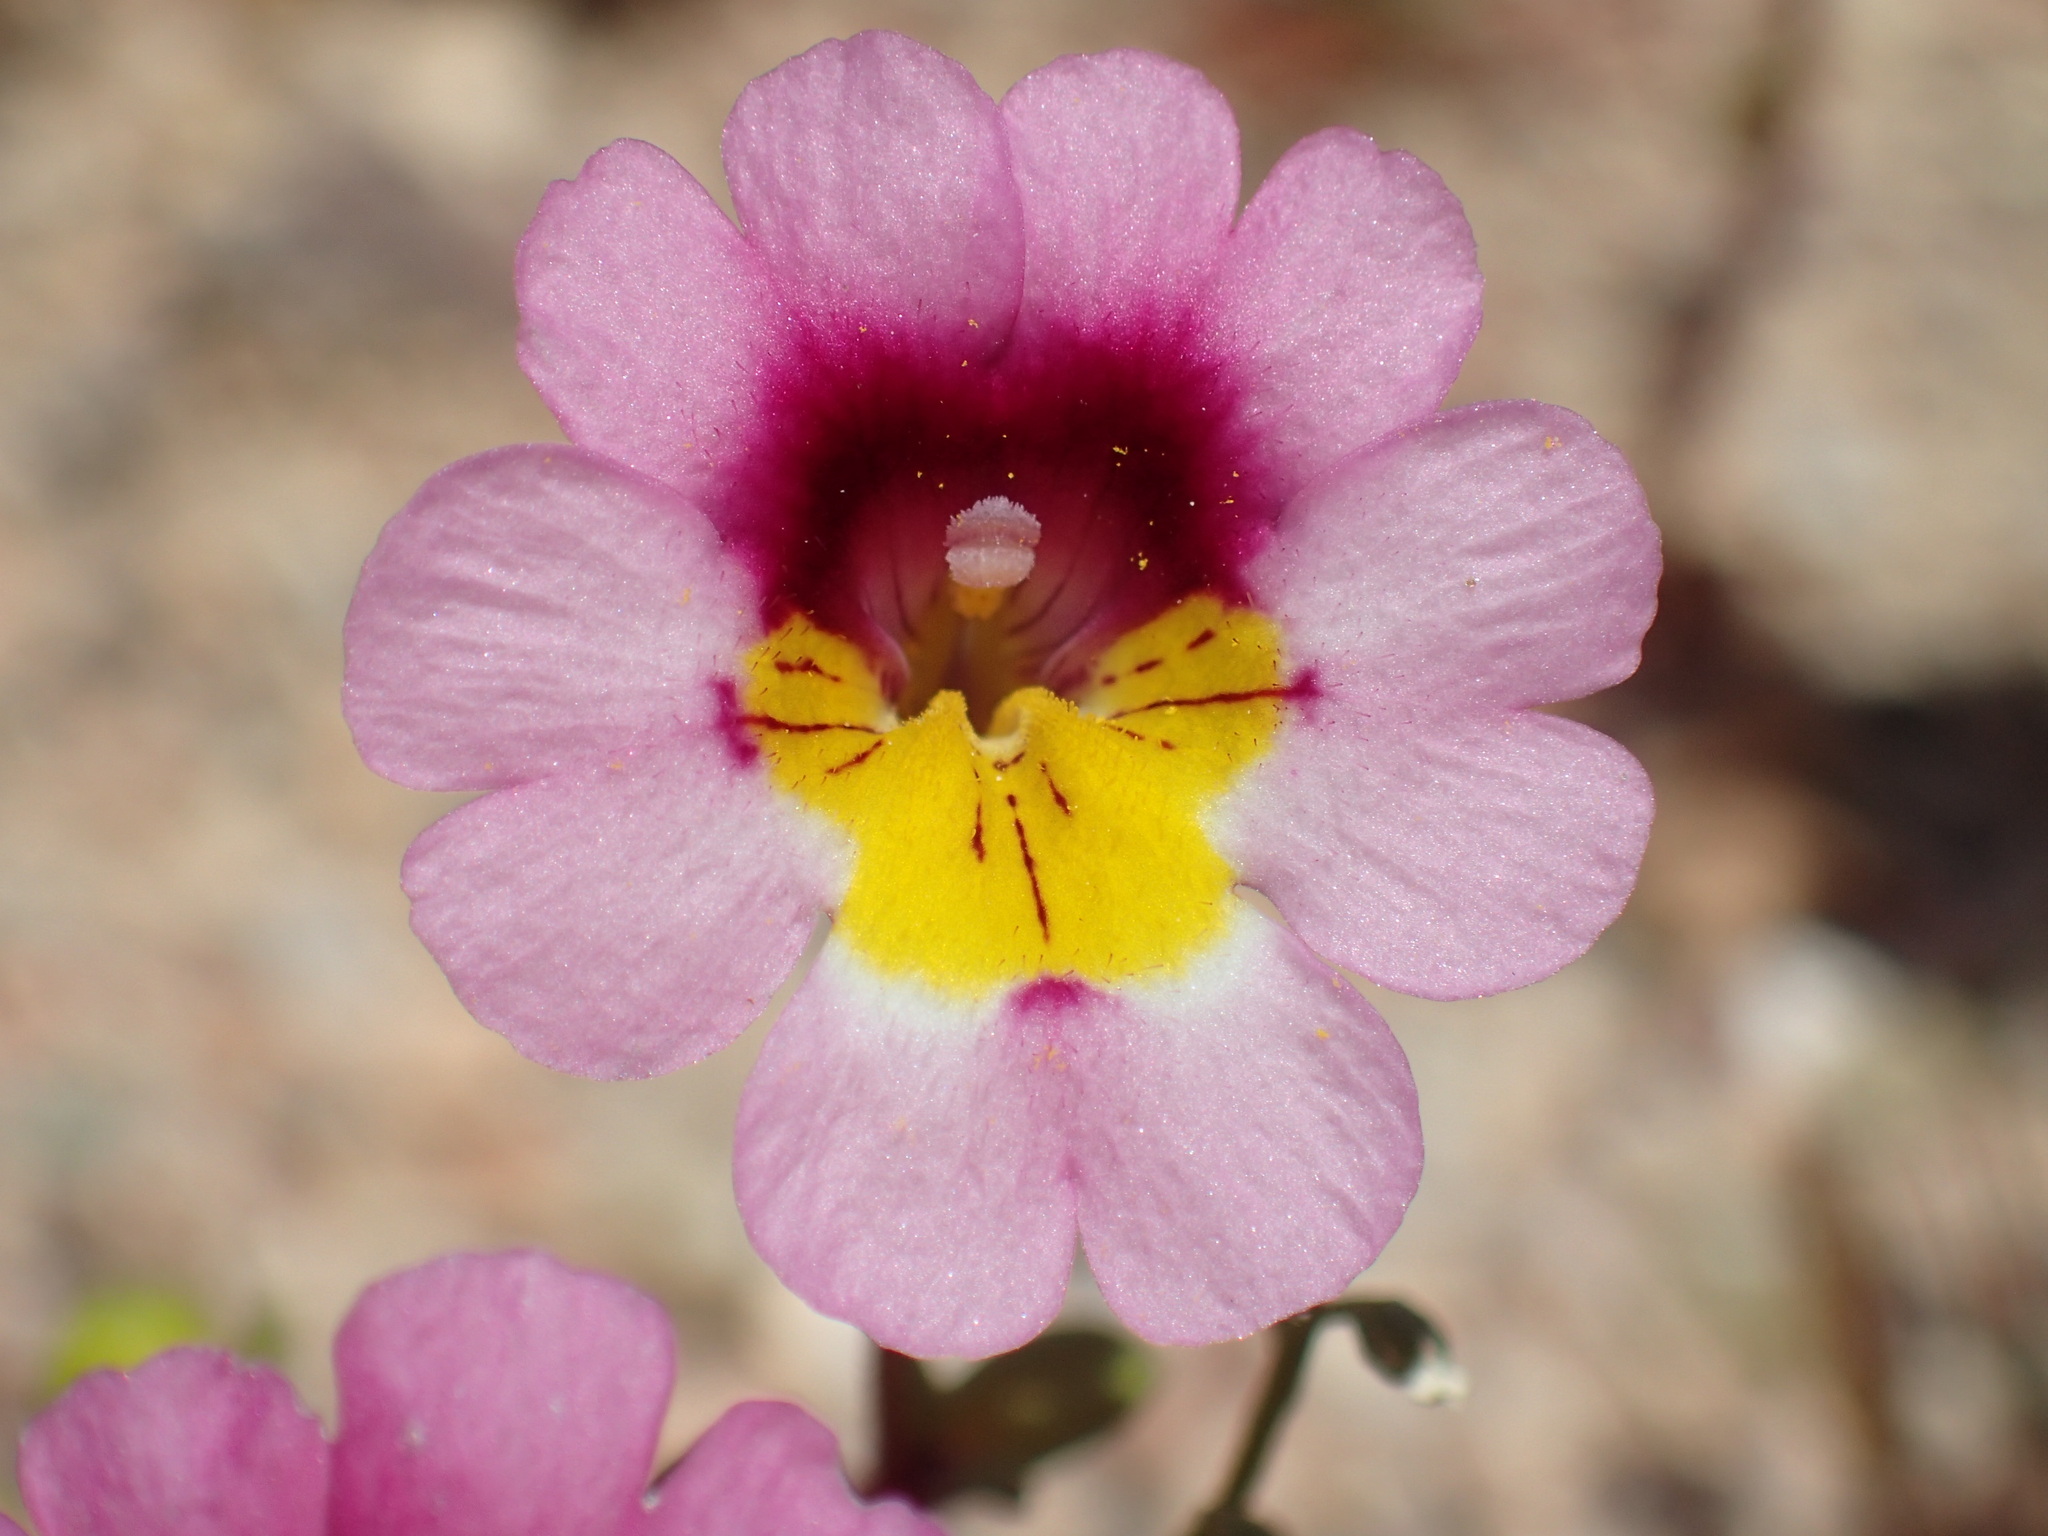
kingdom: Plantae
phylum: Tracheophyta
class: Magnoliopsida
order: Lamiales
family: Phrymaceae
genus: Erythranthe
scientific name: Erythranthe rhodopetra
